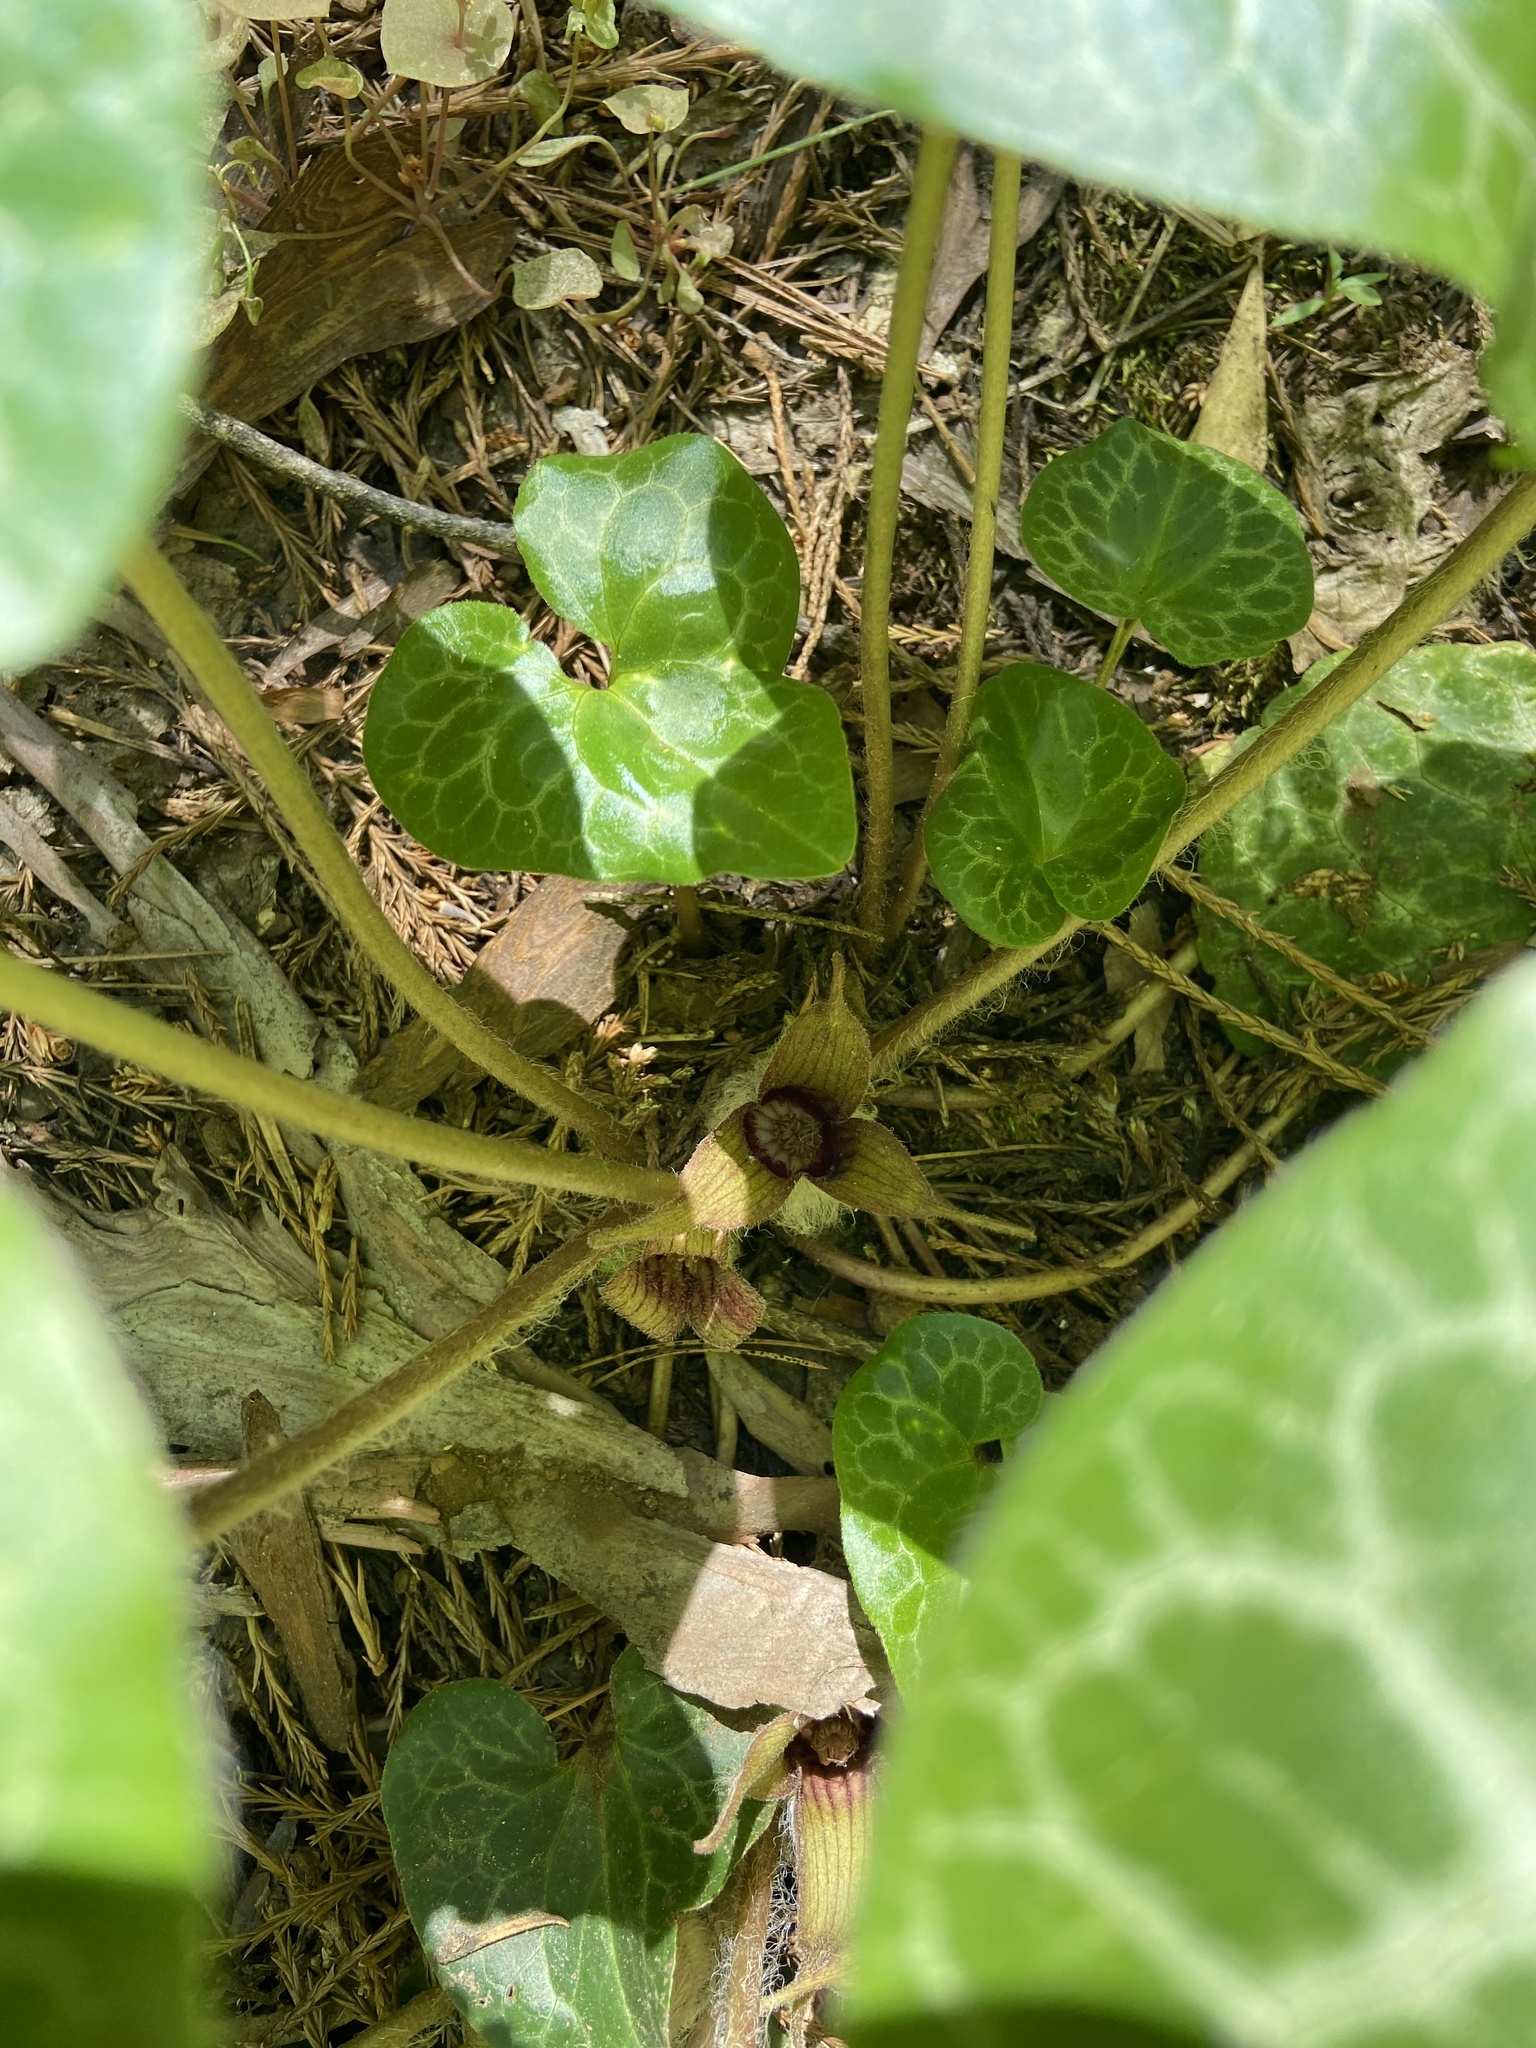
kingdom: Plantae
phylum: Tracheophyta
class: Magnoliopsida
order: Piperales
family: Aristolochiaceae
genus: Asarum
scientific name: Asarum hartwegii
